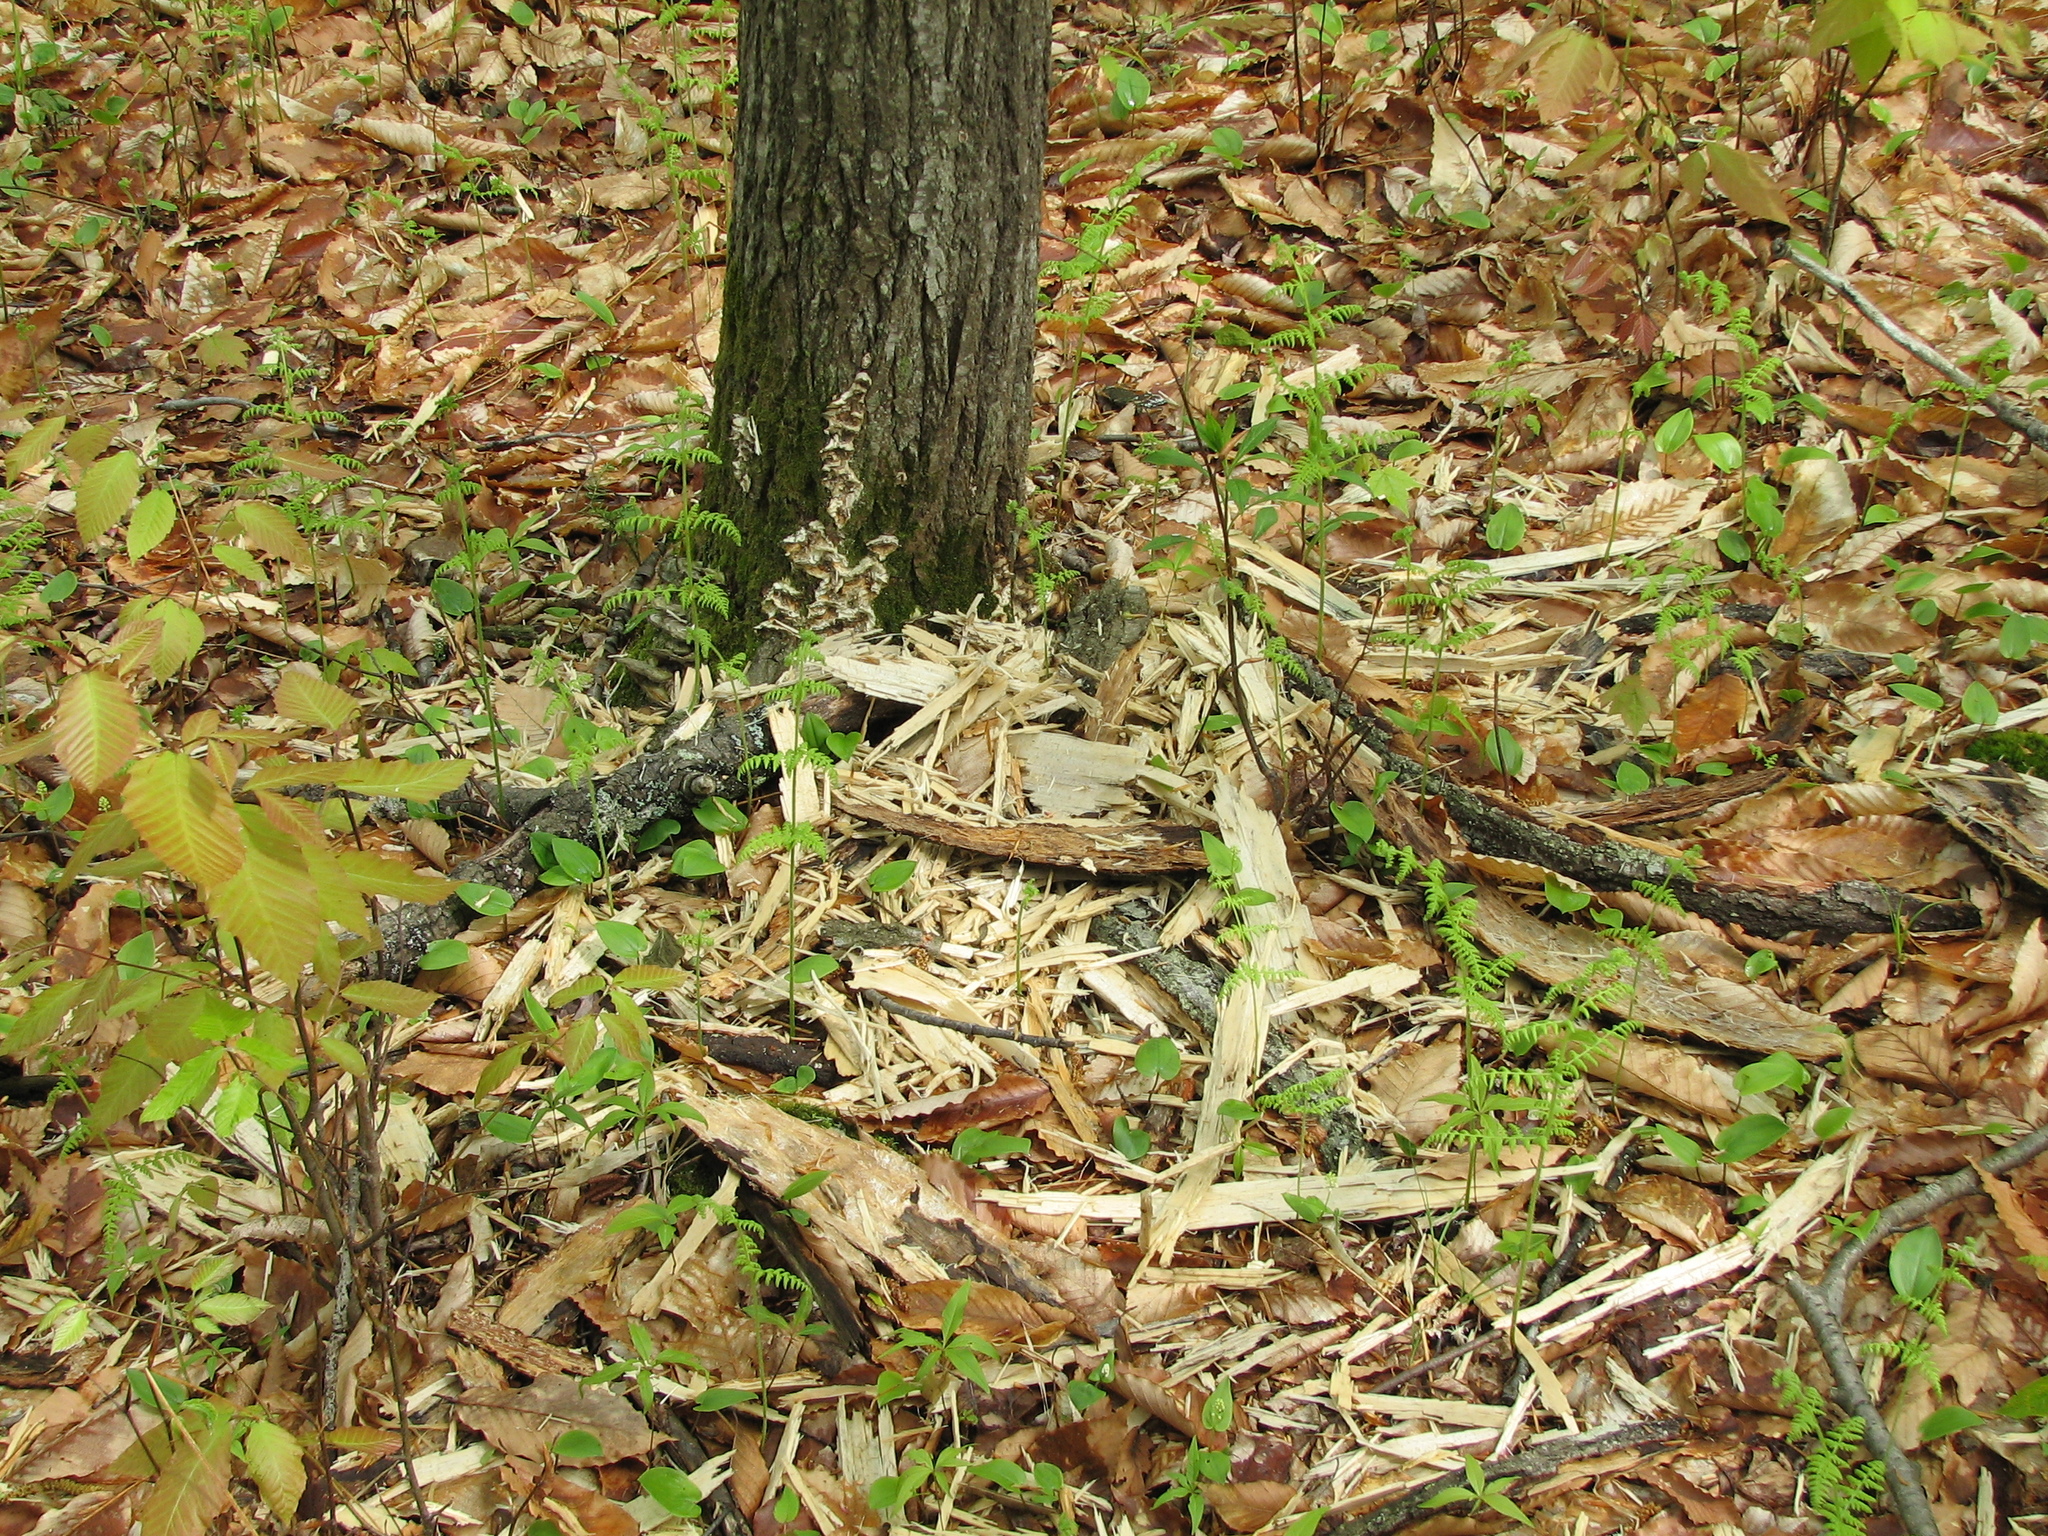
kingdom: Animalia
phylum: Chordata
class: Mammalia
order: Carnivora
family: Ursidae
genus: Ursus
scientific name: Ursus americanus
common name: American black bear
